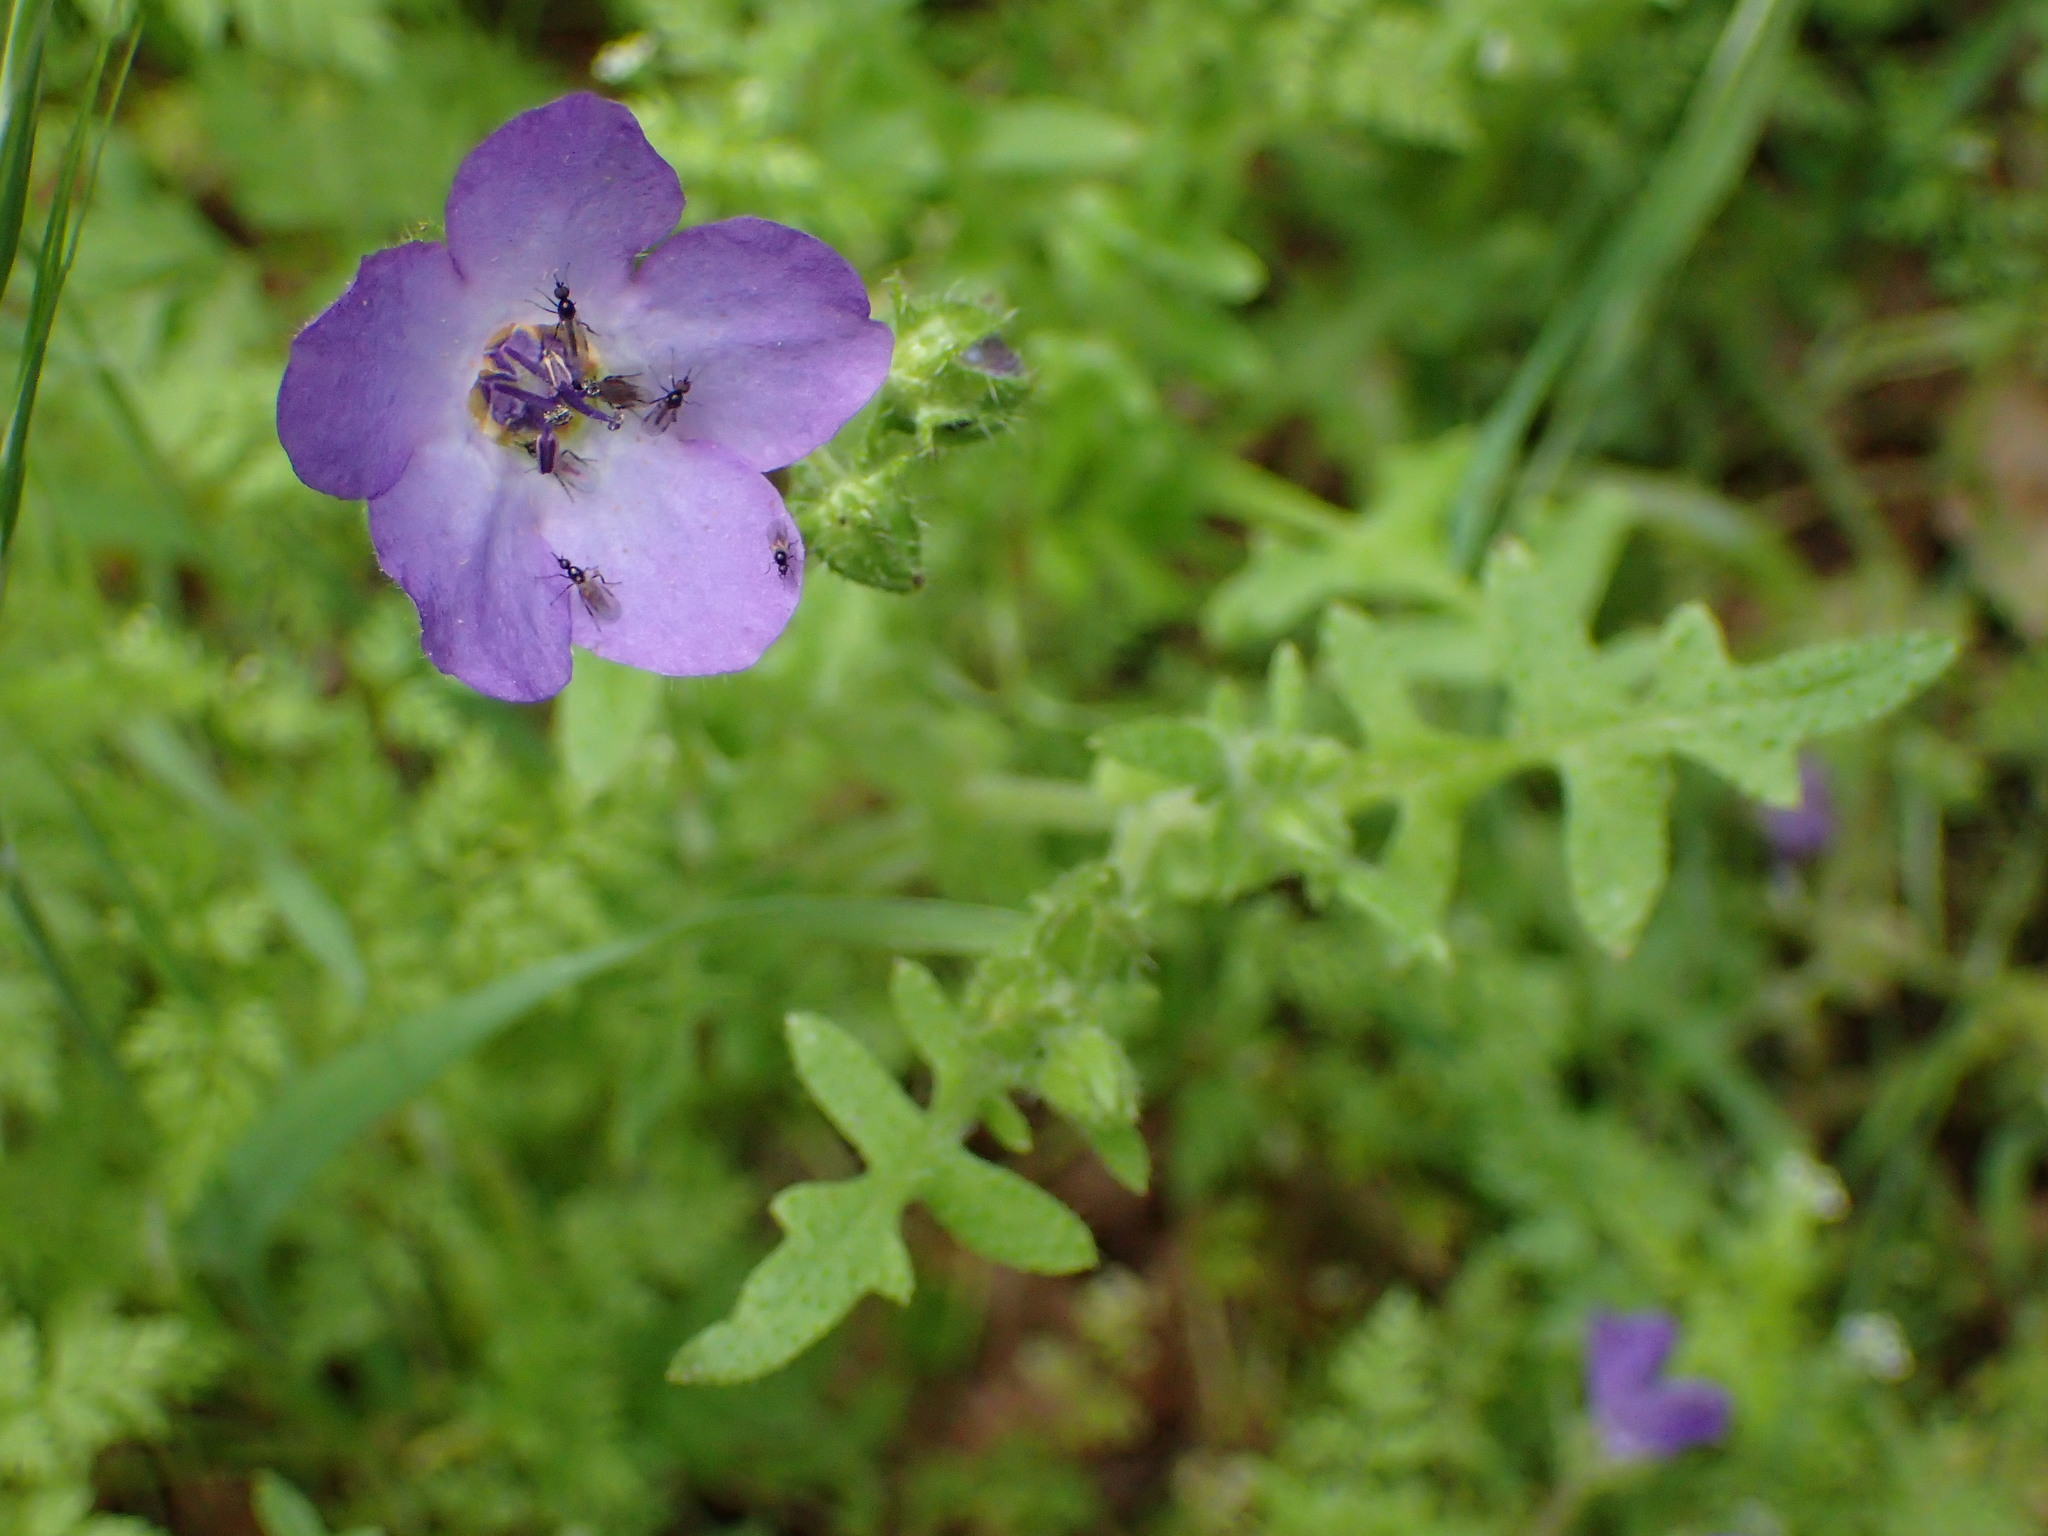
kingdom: Plantae
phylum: Tracheophyta
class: Magnoliopsida
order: Boraginales
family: Hydrophyllaceae
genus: Pholistoma
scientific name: Pholistoma auritum
